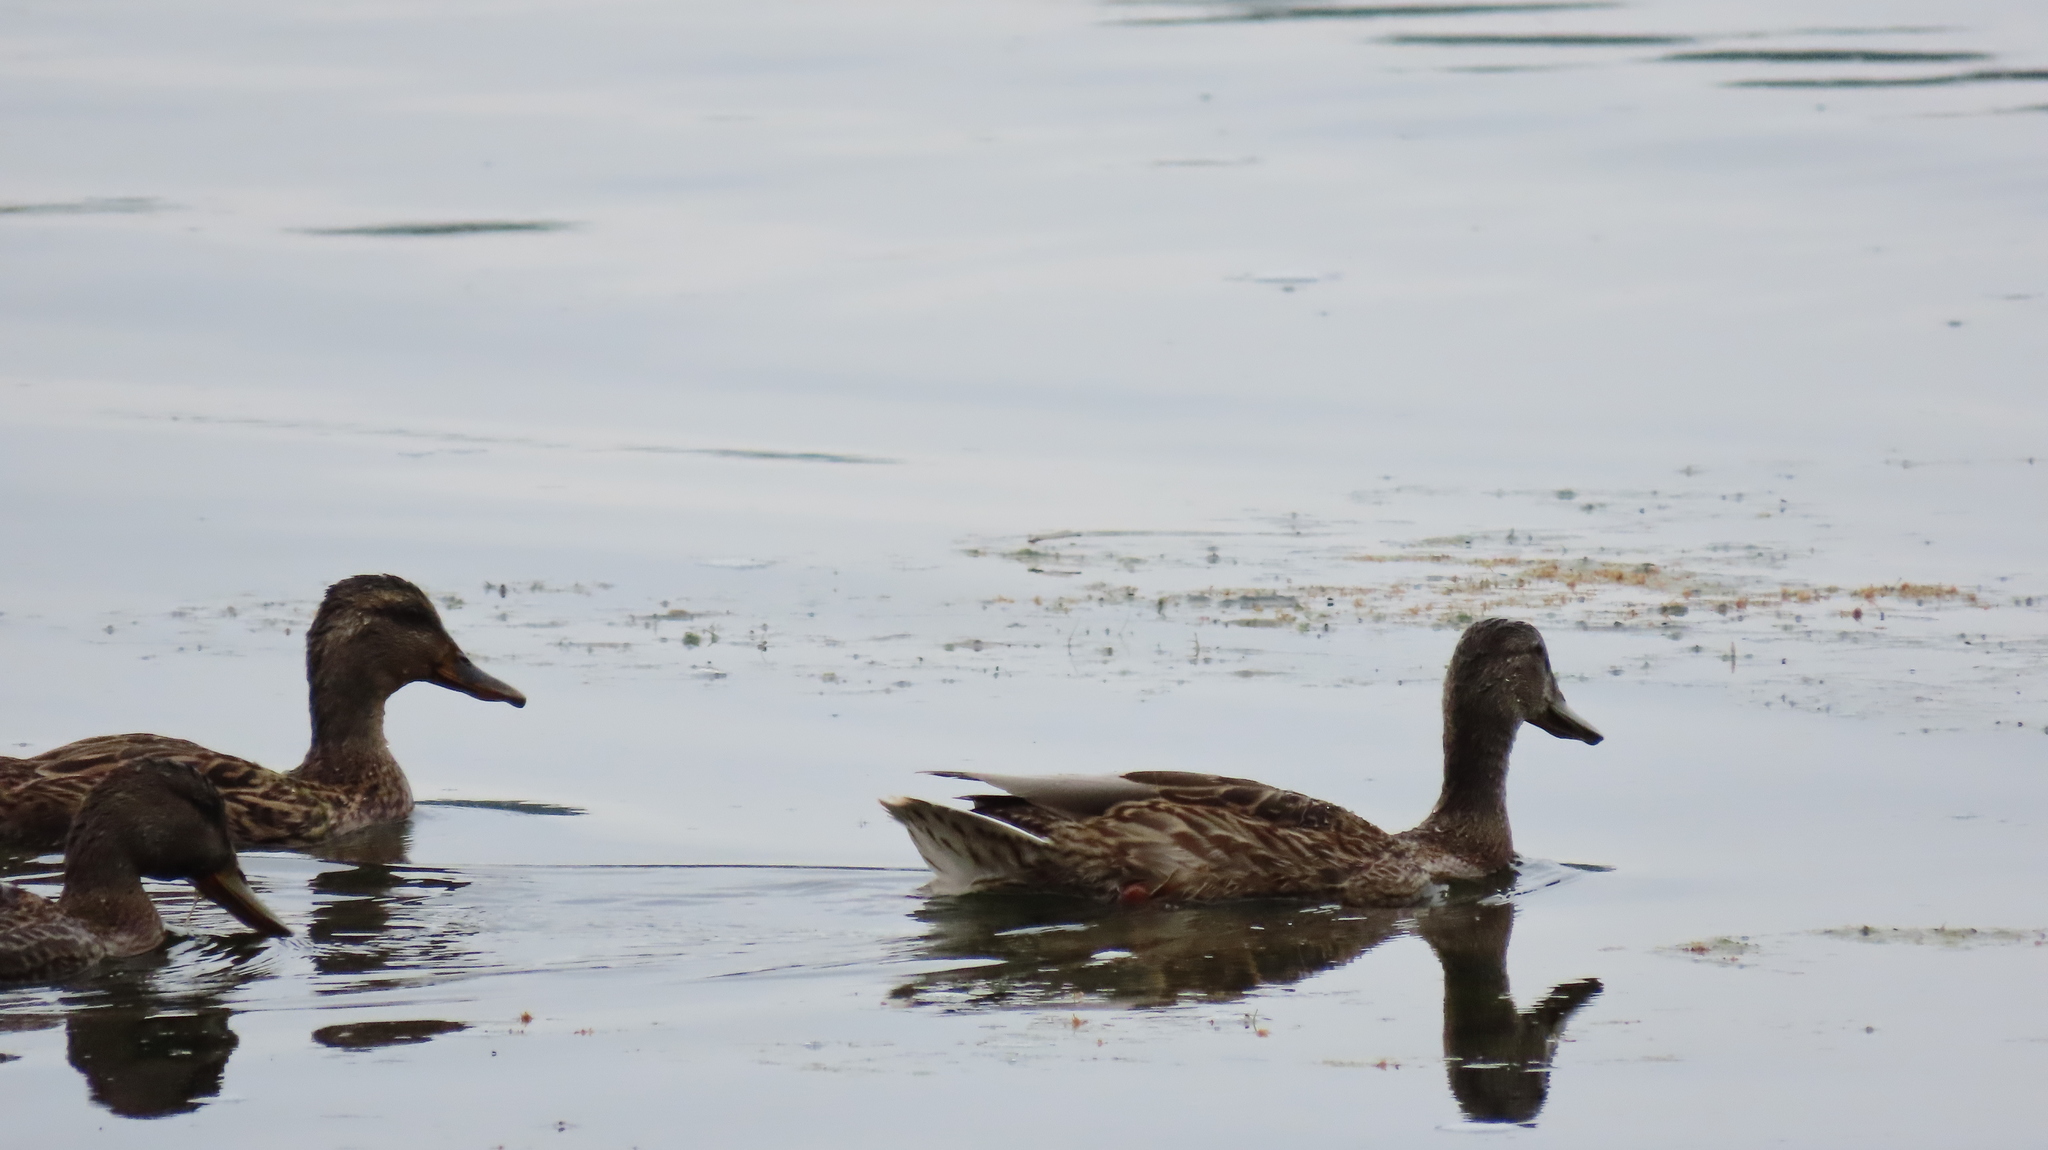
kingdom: Animalia
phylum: Chordata
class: Aves
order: Anseriformes
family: Anatidae
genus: Anas
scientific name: Anas platyrhynchos
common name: Mallard
